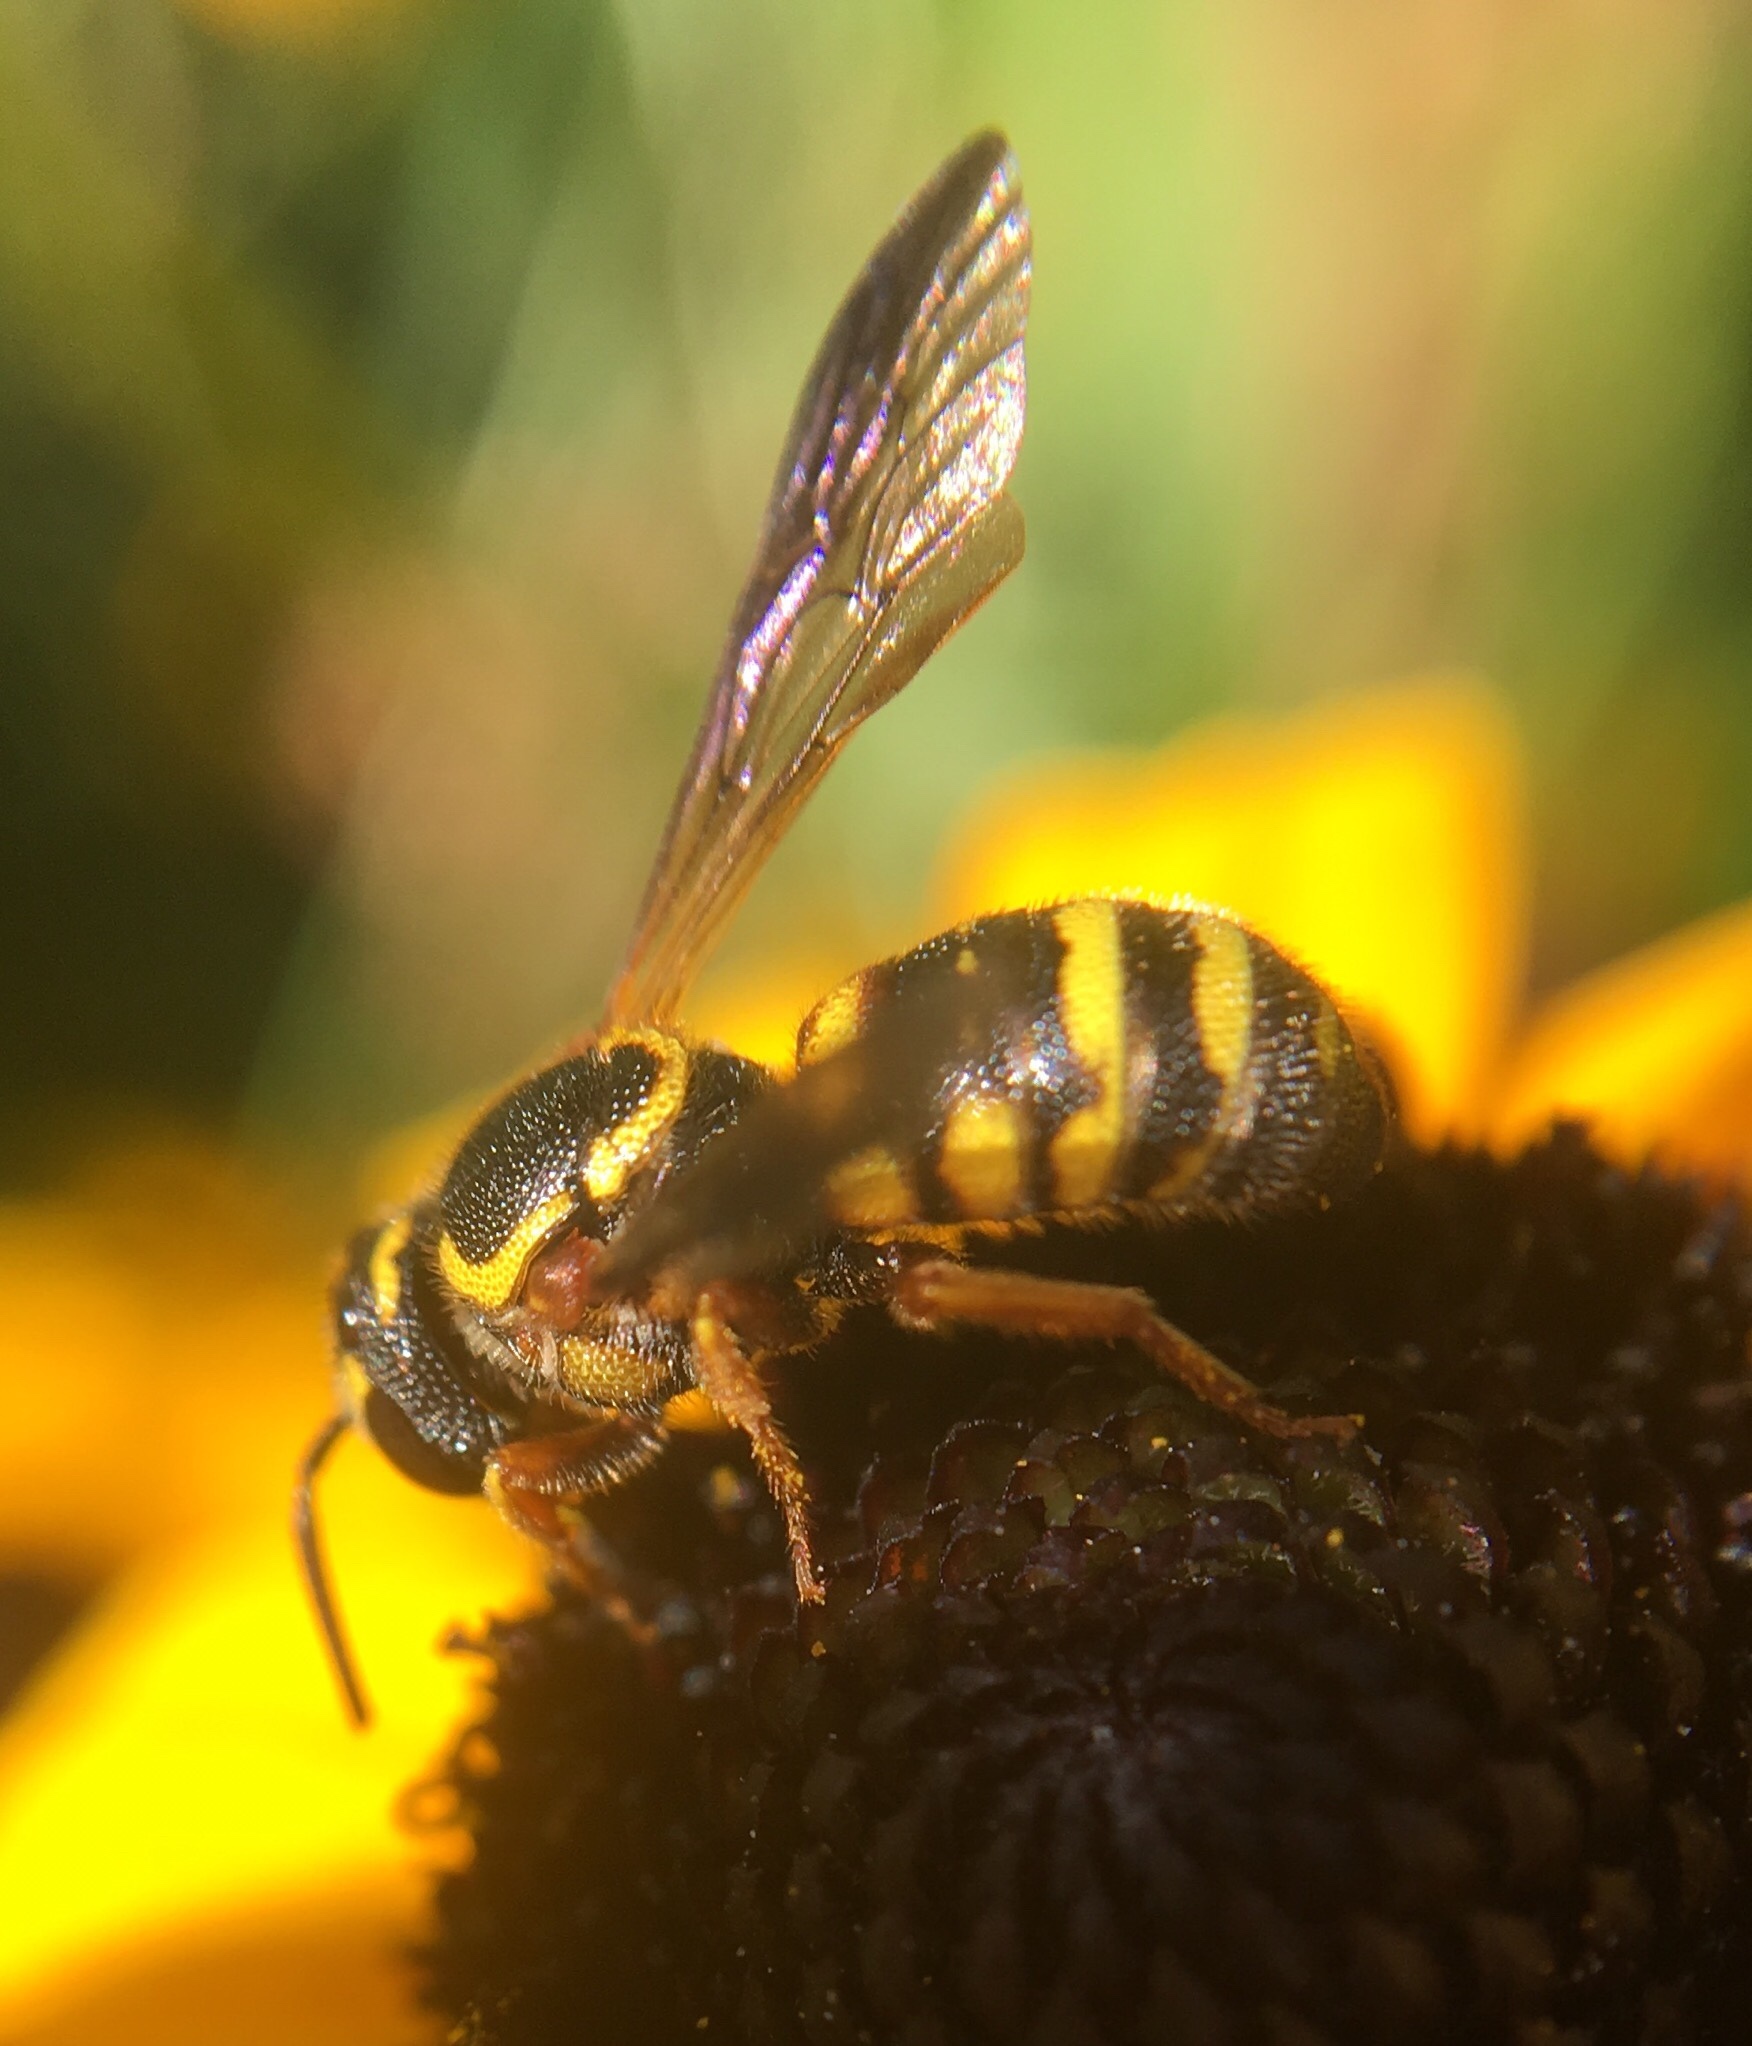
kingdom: Animalia
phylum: Arthropoda
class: Insecta
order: Hymenoptera
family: Megachilidae
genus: Stelis
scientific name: Stelis louisae
